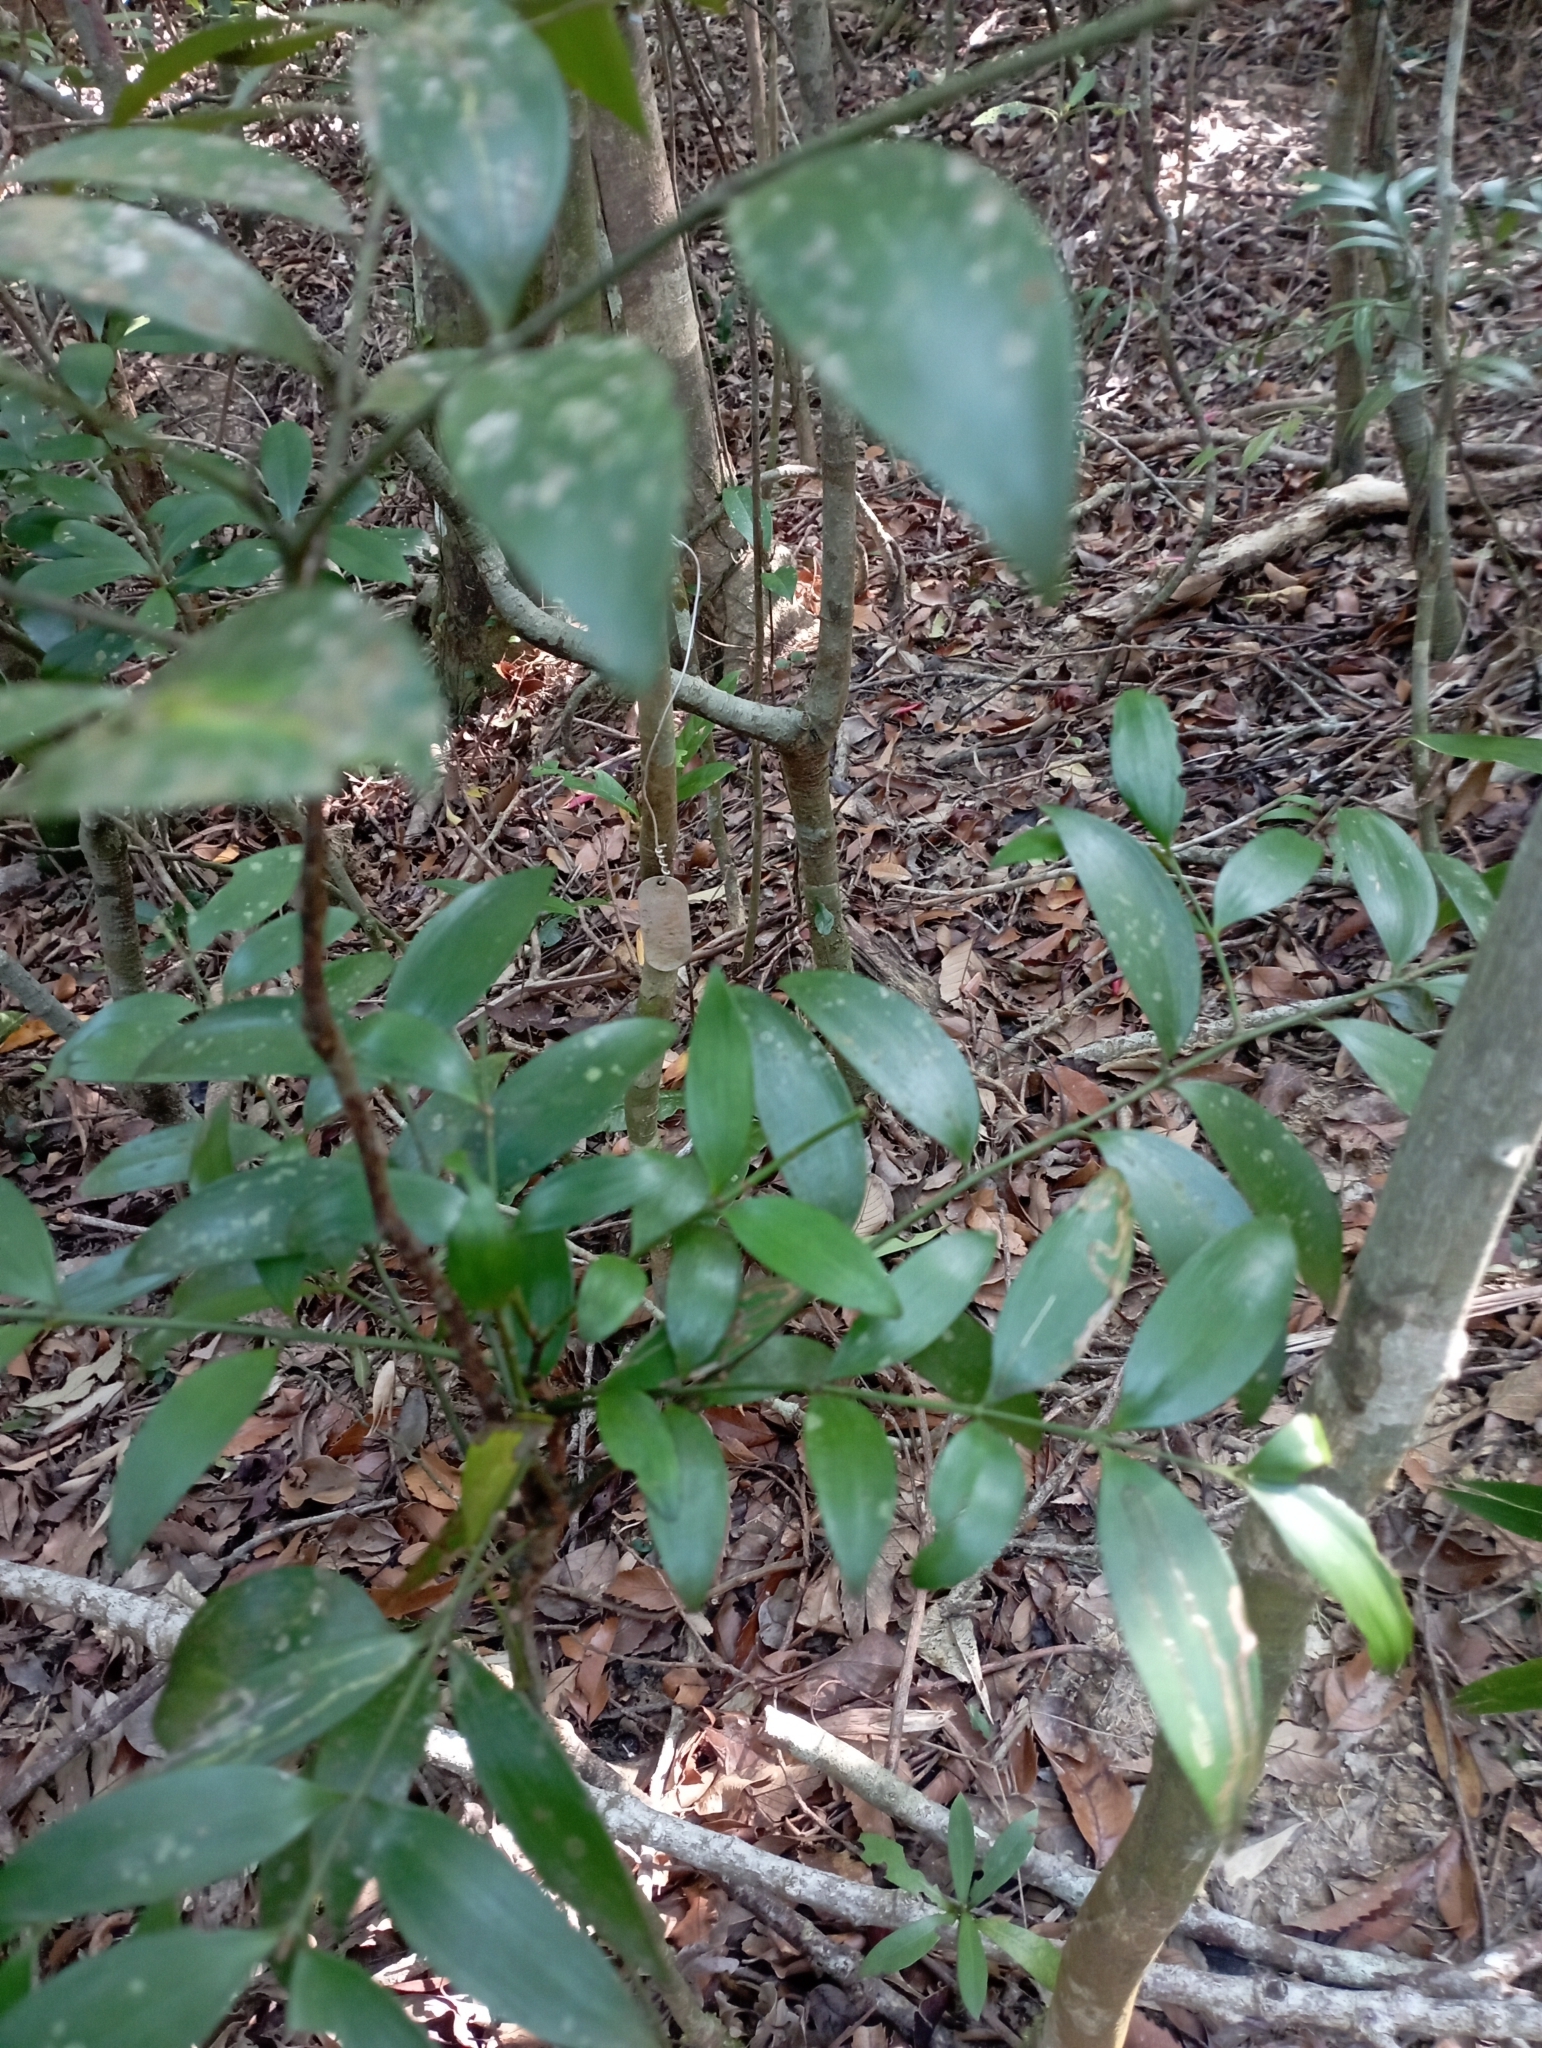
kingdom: Plantae
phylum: Tracheophyta
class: Pinopsida
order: Pinales
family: Podocarpaceae
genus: Nageia
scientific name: Nageia nagi
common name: Kaphal
